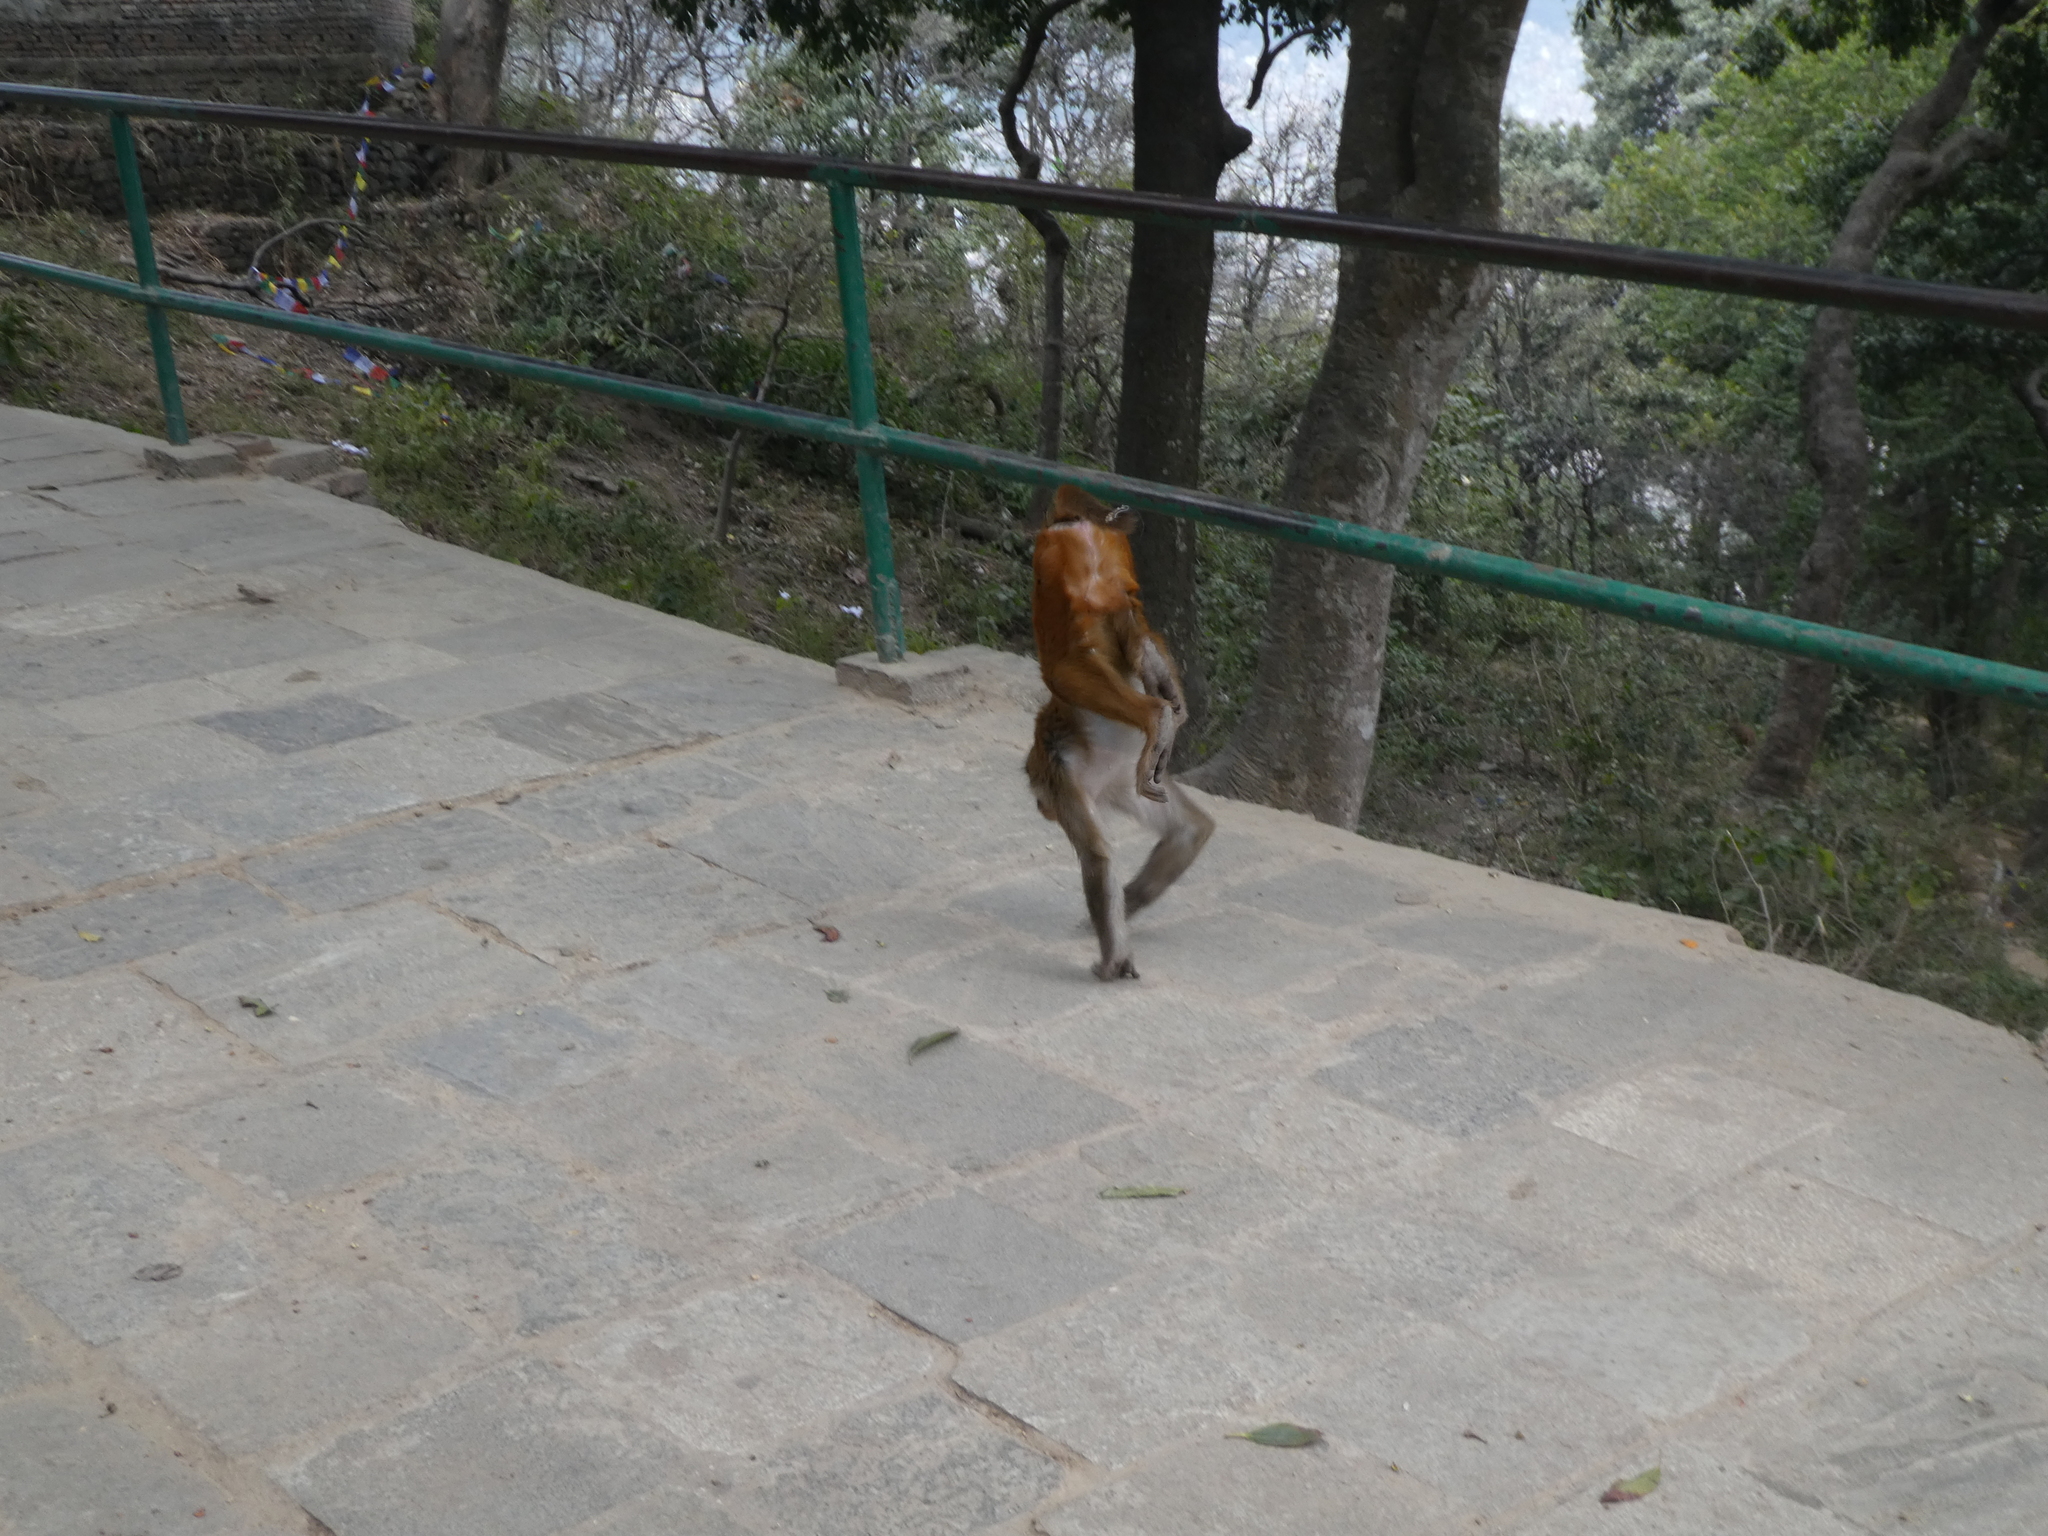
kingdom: Animalia
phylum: Chordata
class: Mammalia
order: Primates
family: Cercopithecidae
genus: Macaca
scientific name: Macaca mulatta
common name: Rhesus monkey
